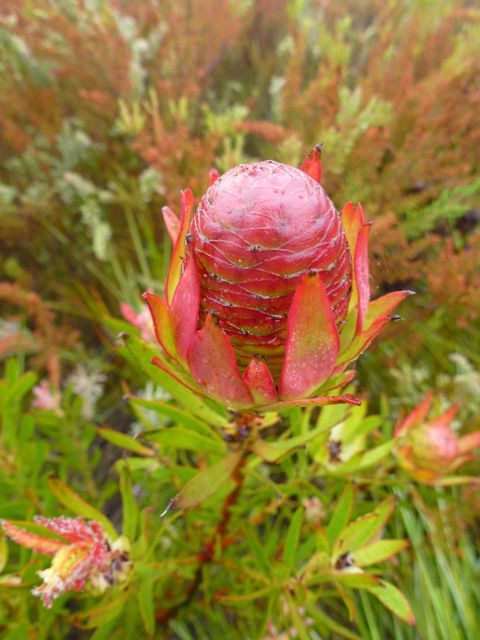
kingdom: Plantae
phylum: Tracheophyta
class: Magnoliopsida
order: Proteales
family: Proteaceae
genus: Leucadendron
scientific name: Leucadendron spissifolium
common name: Spear-leaf conebush
